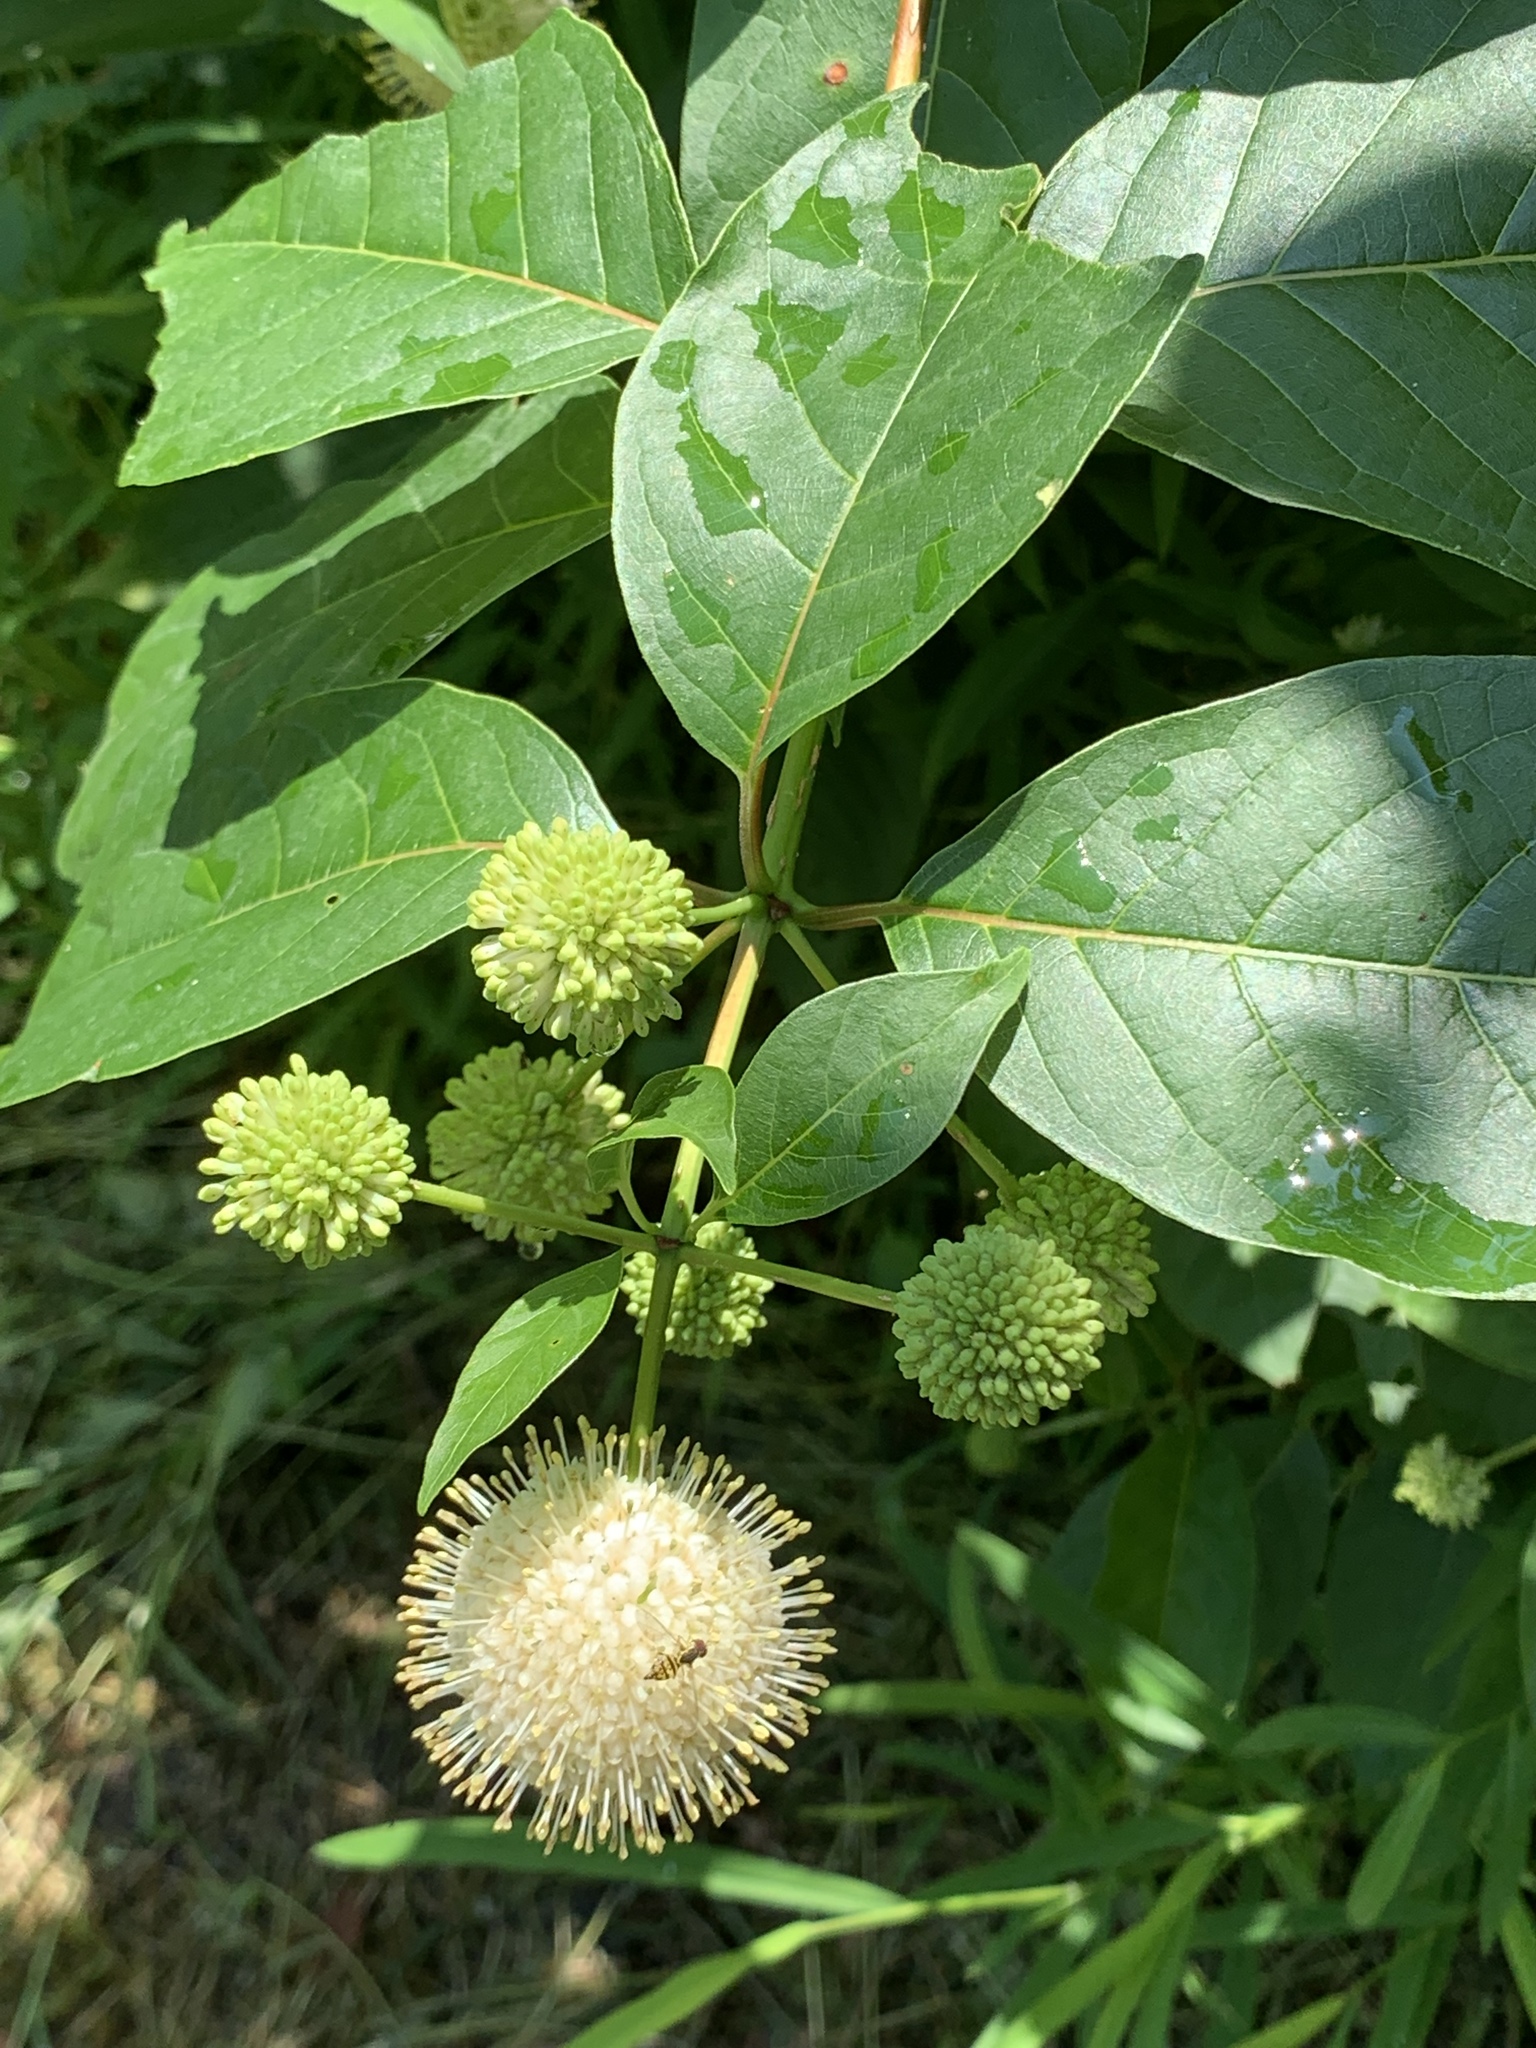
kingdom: Plantae
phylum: Tracheophyta
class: Magnoliopsida
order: Gentianales
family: Rubiaceae
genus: Cephalanthus
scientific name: Cephalanthus occidentalis
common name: Button-willow
